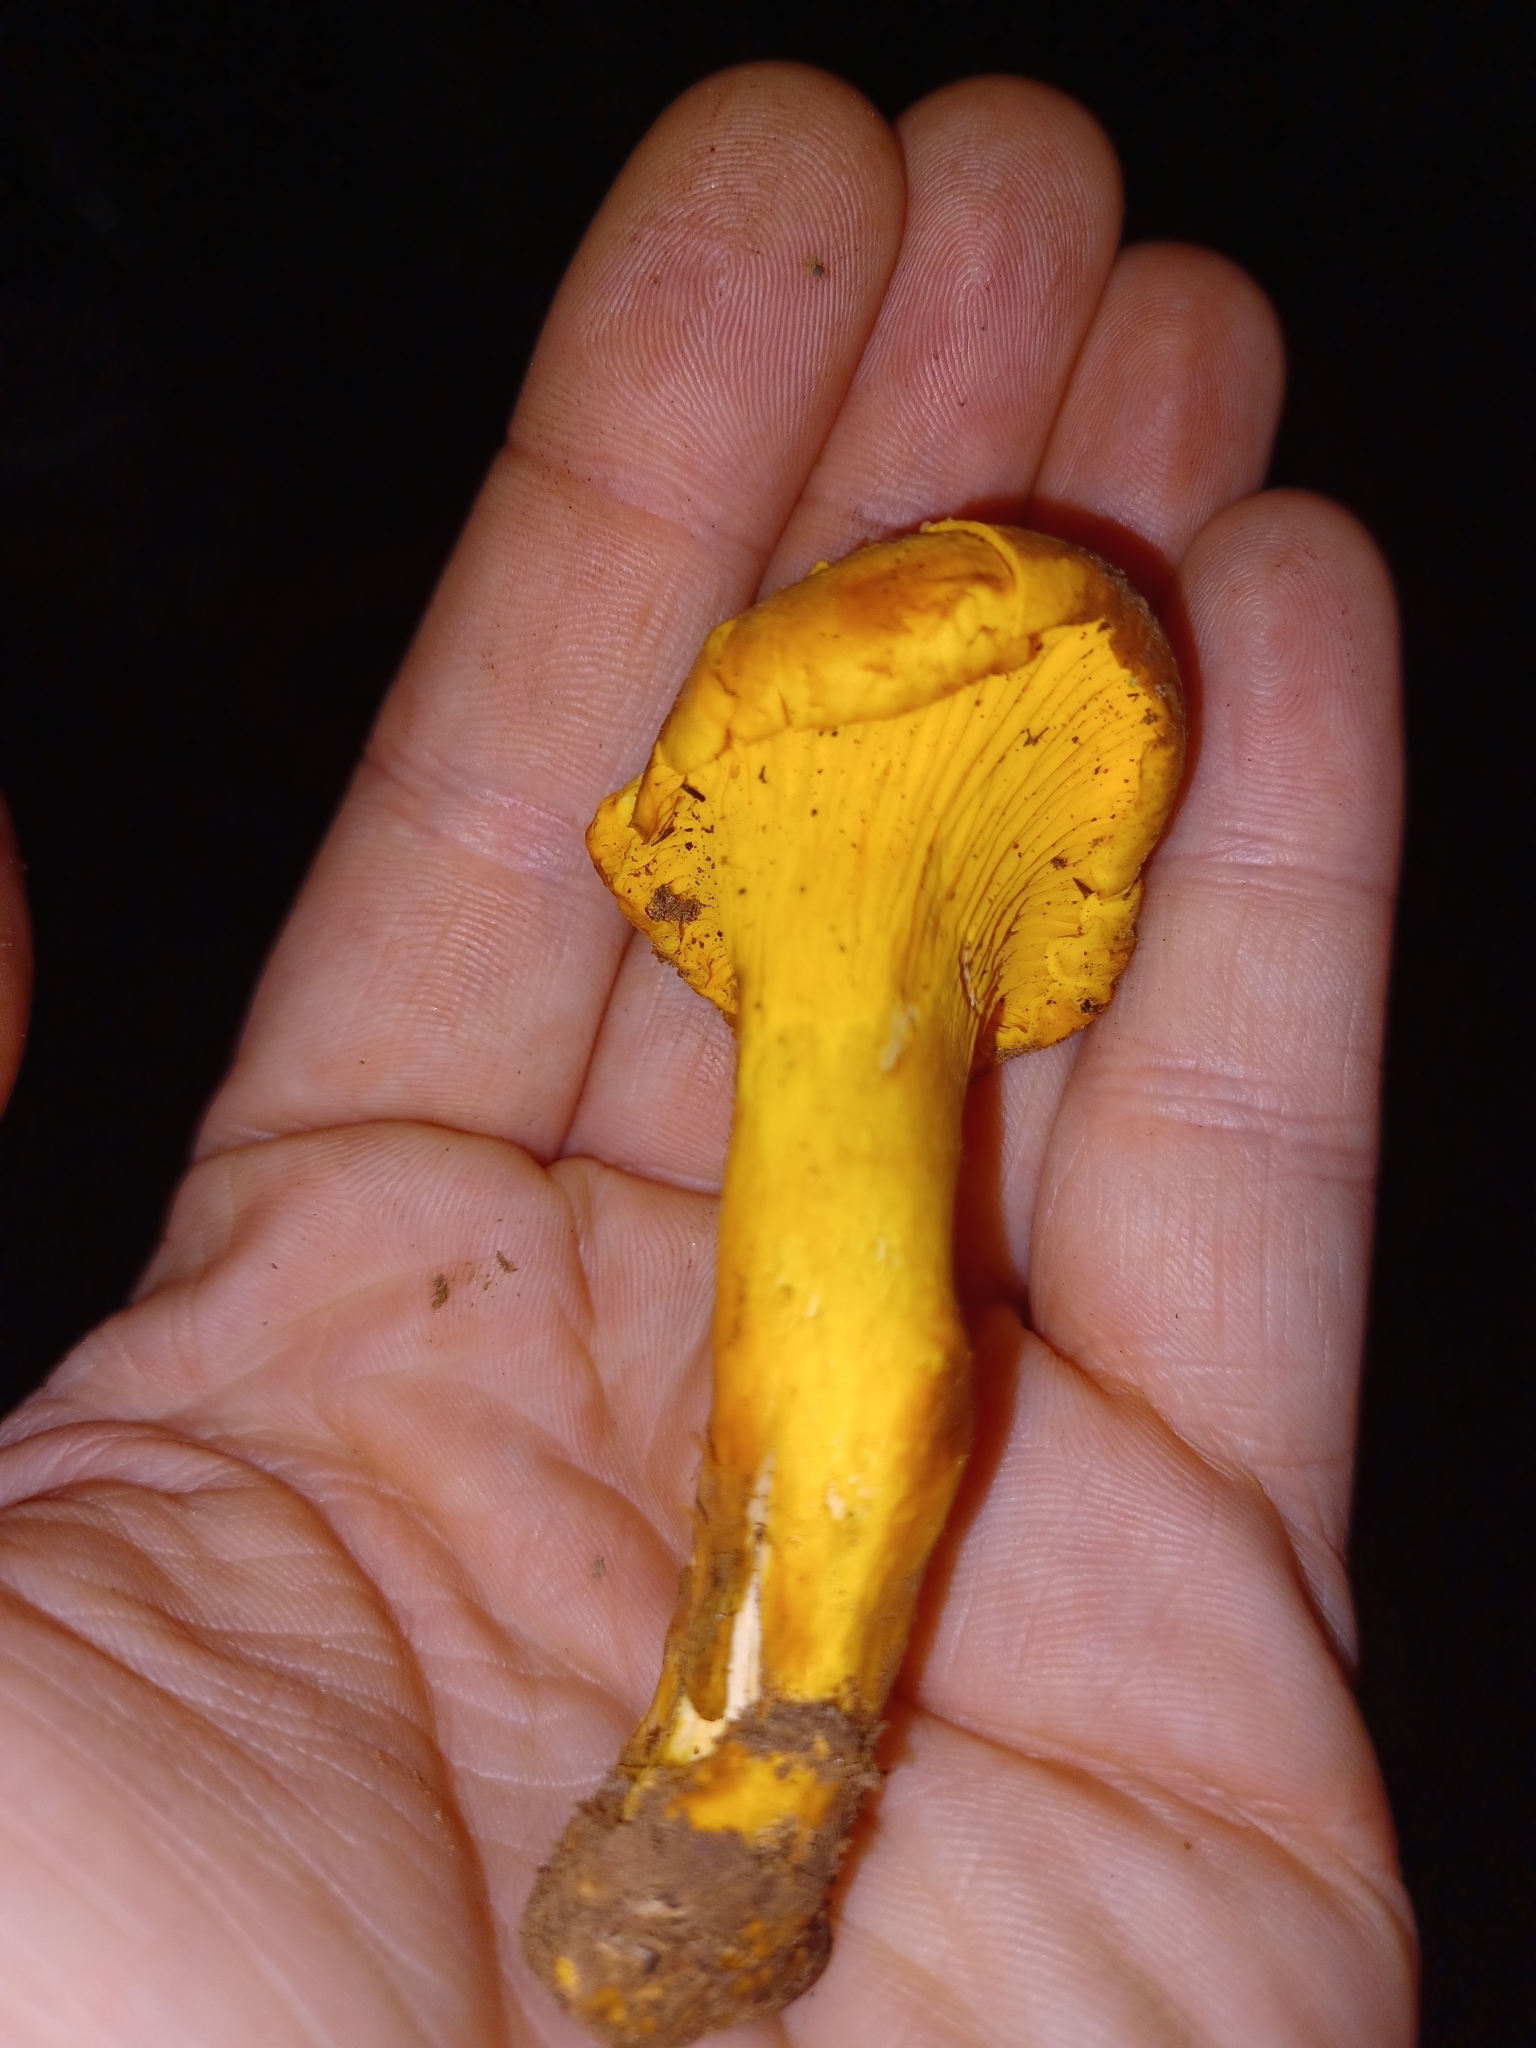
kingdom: Fungi
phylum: Basidiomycota
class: Agaricomycetes
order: Cantharellales
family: Hydnaceae
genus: Cantharellus
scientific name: Cantharellus roseocanus
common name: Rainbow chanterelle
